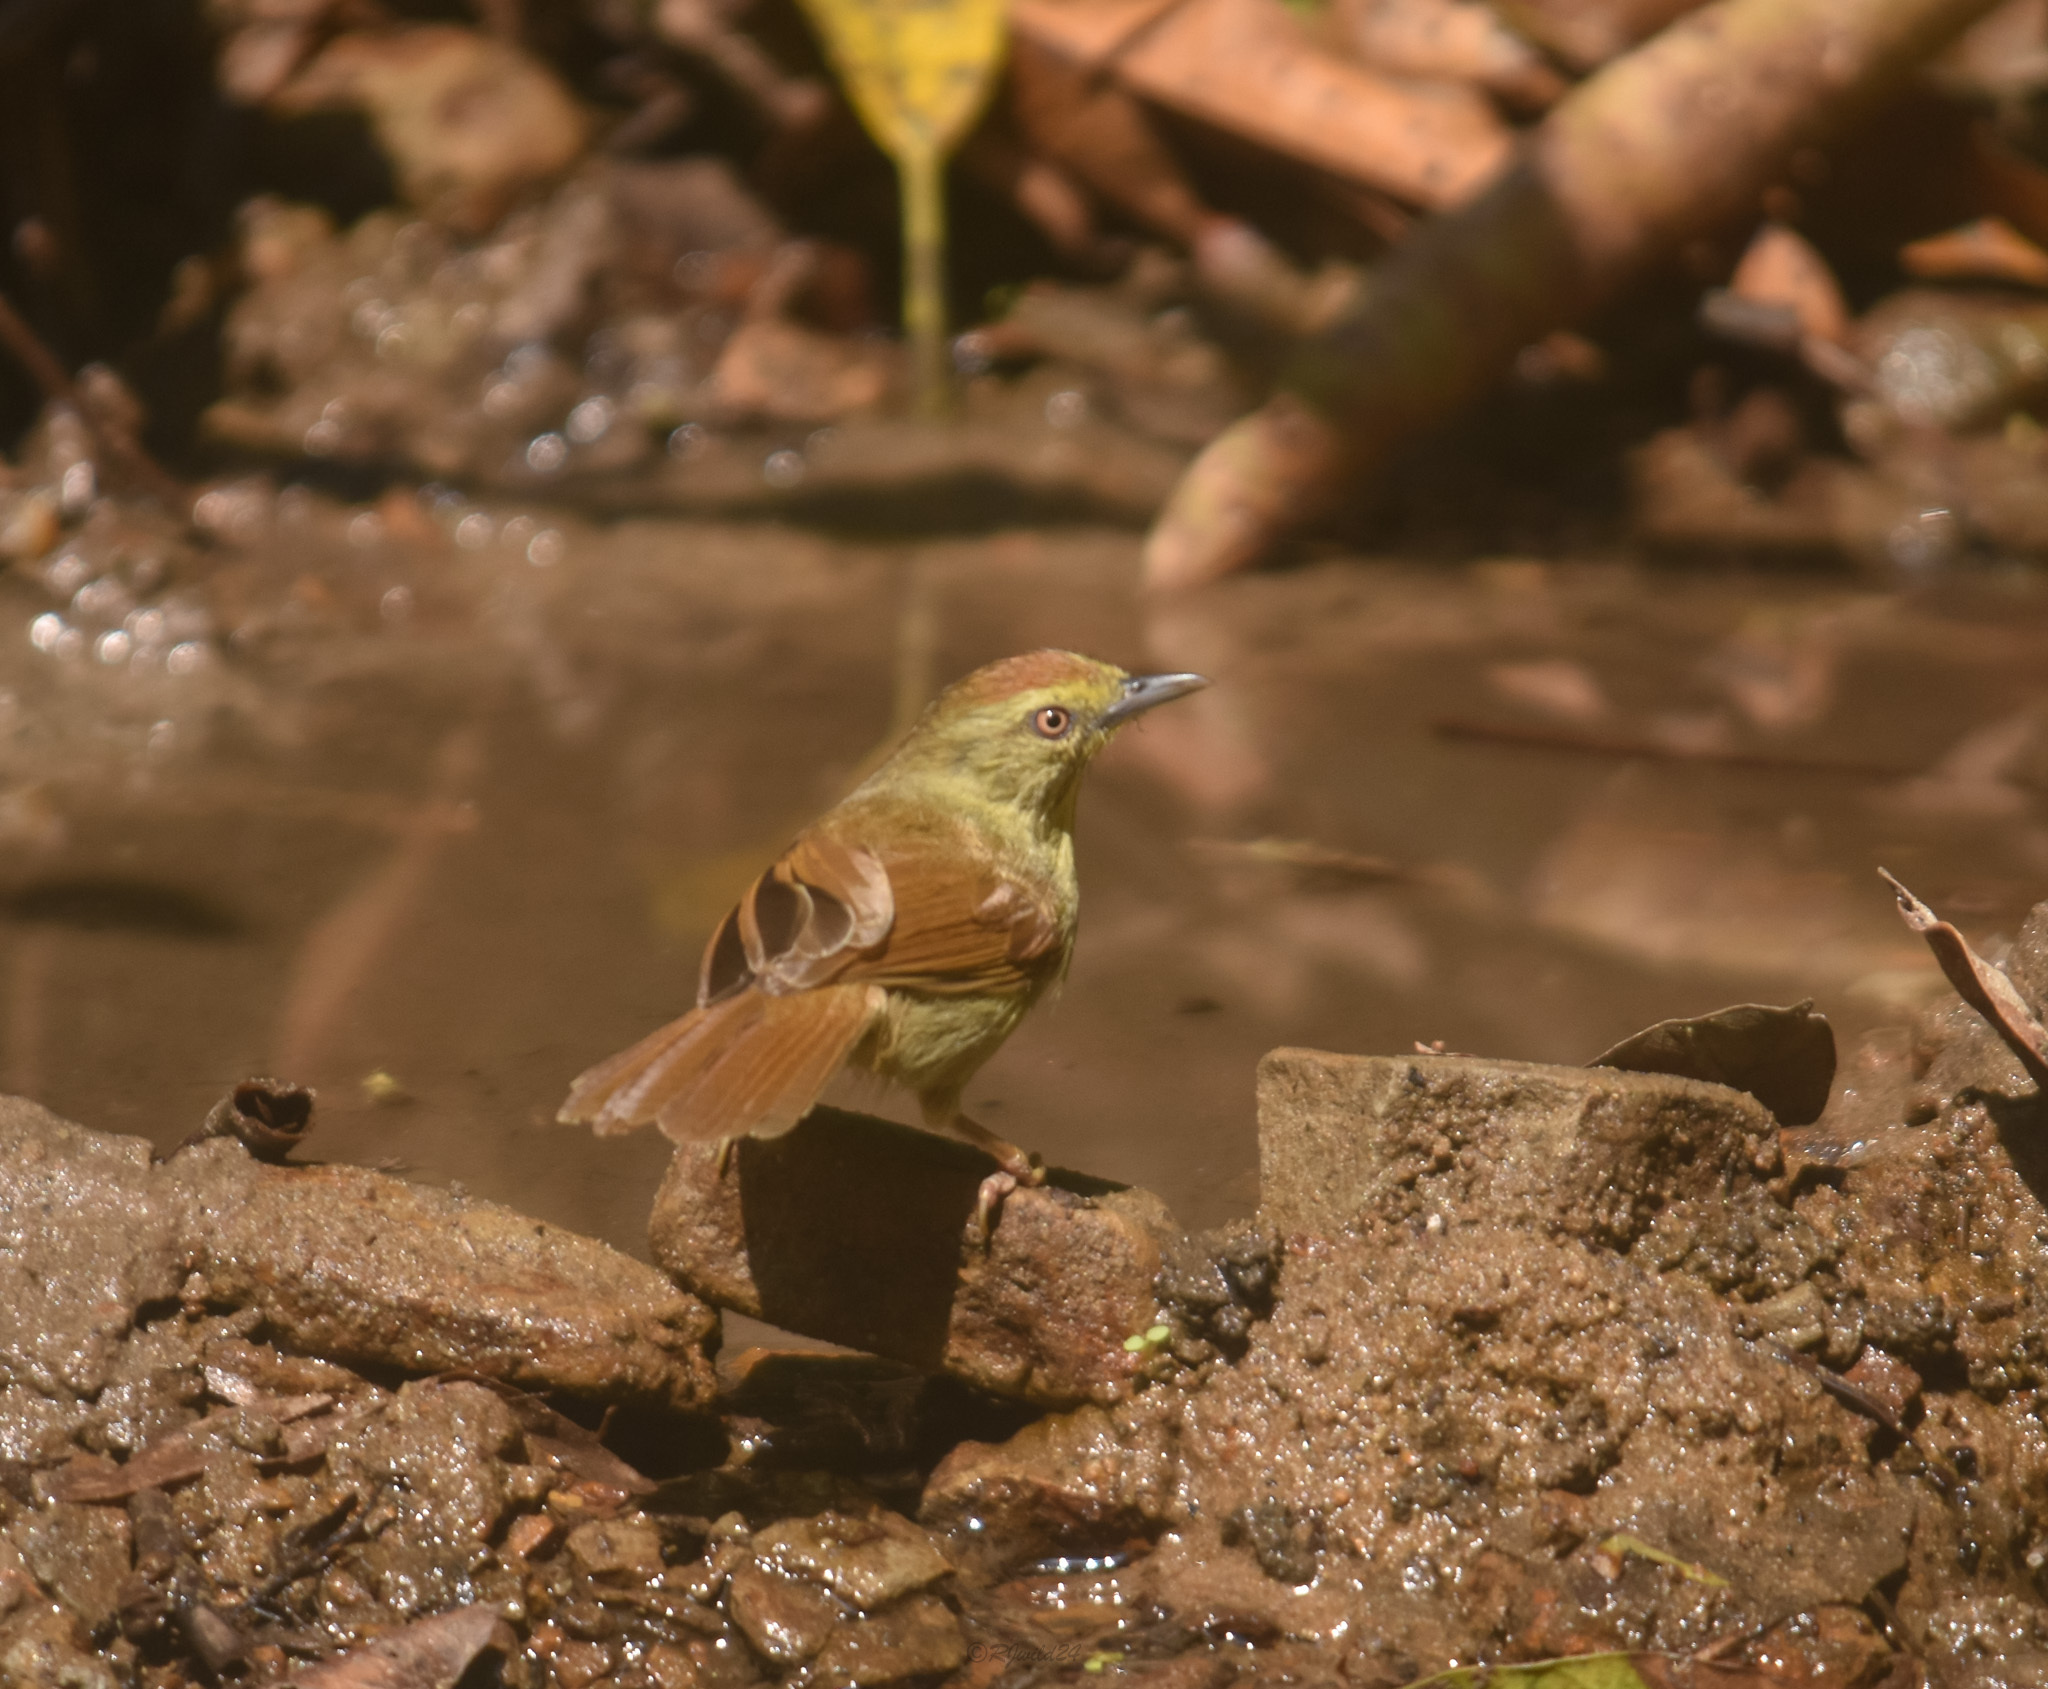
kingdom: Animalia
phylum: Chordata
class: Aves
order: Passeriformes
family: Timaliidae
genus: Macronus
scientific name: Macronus gularis
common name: Striped tit-babbler
